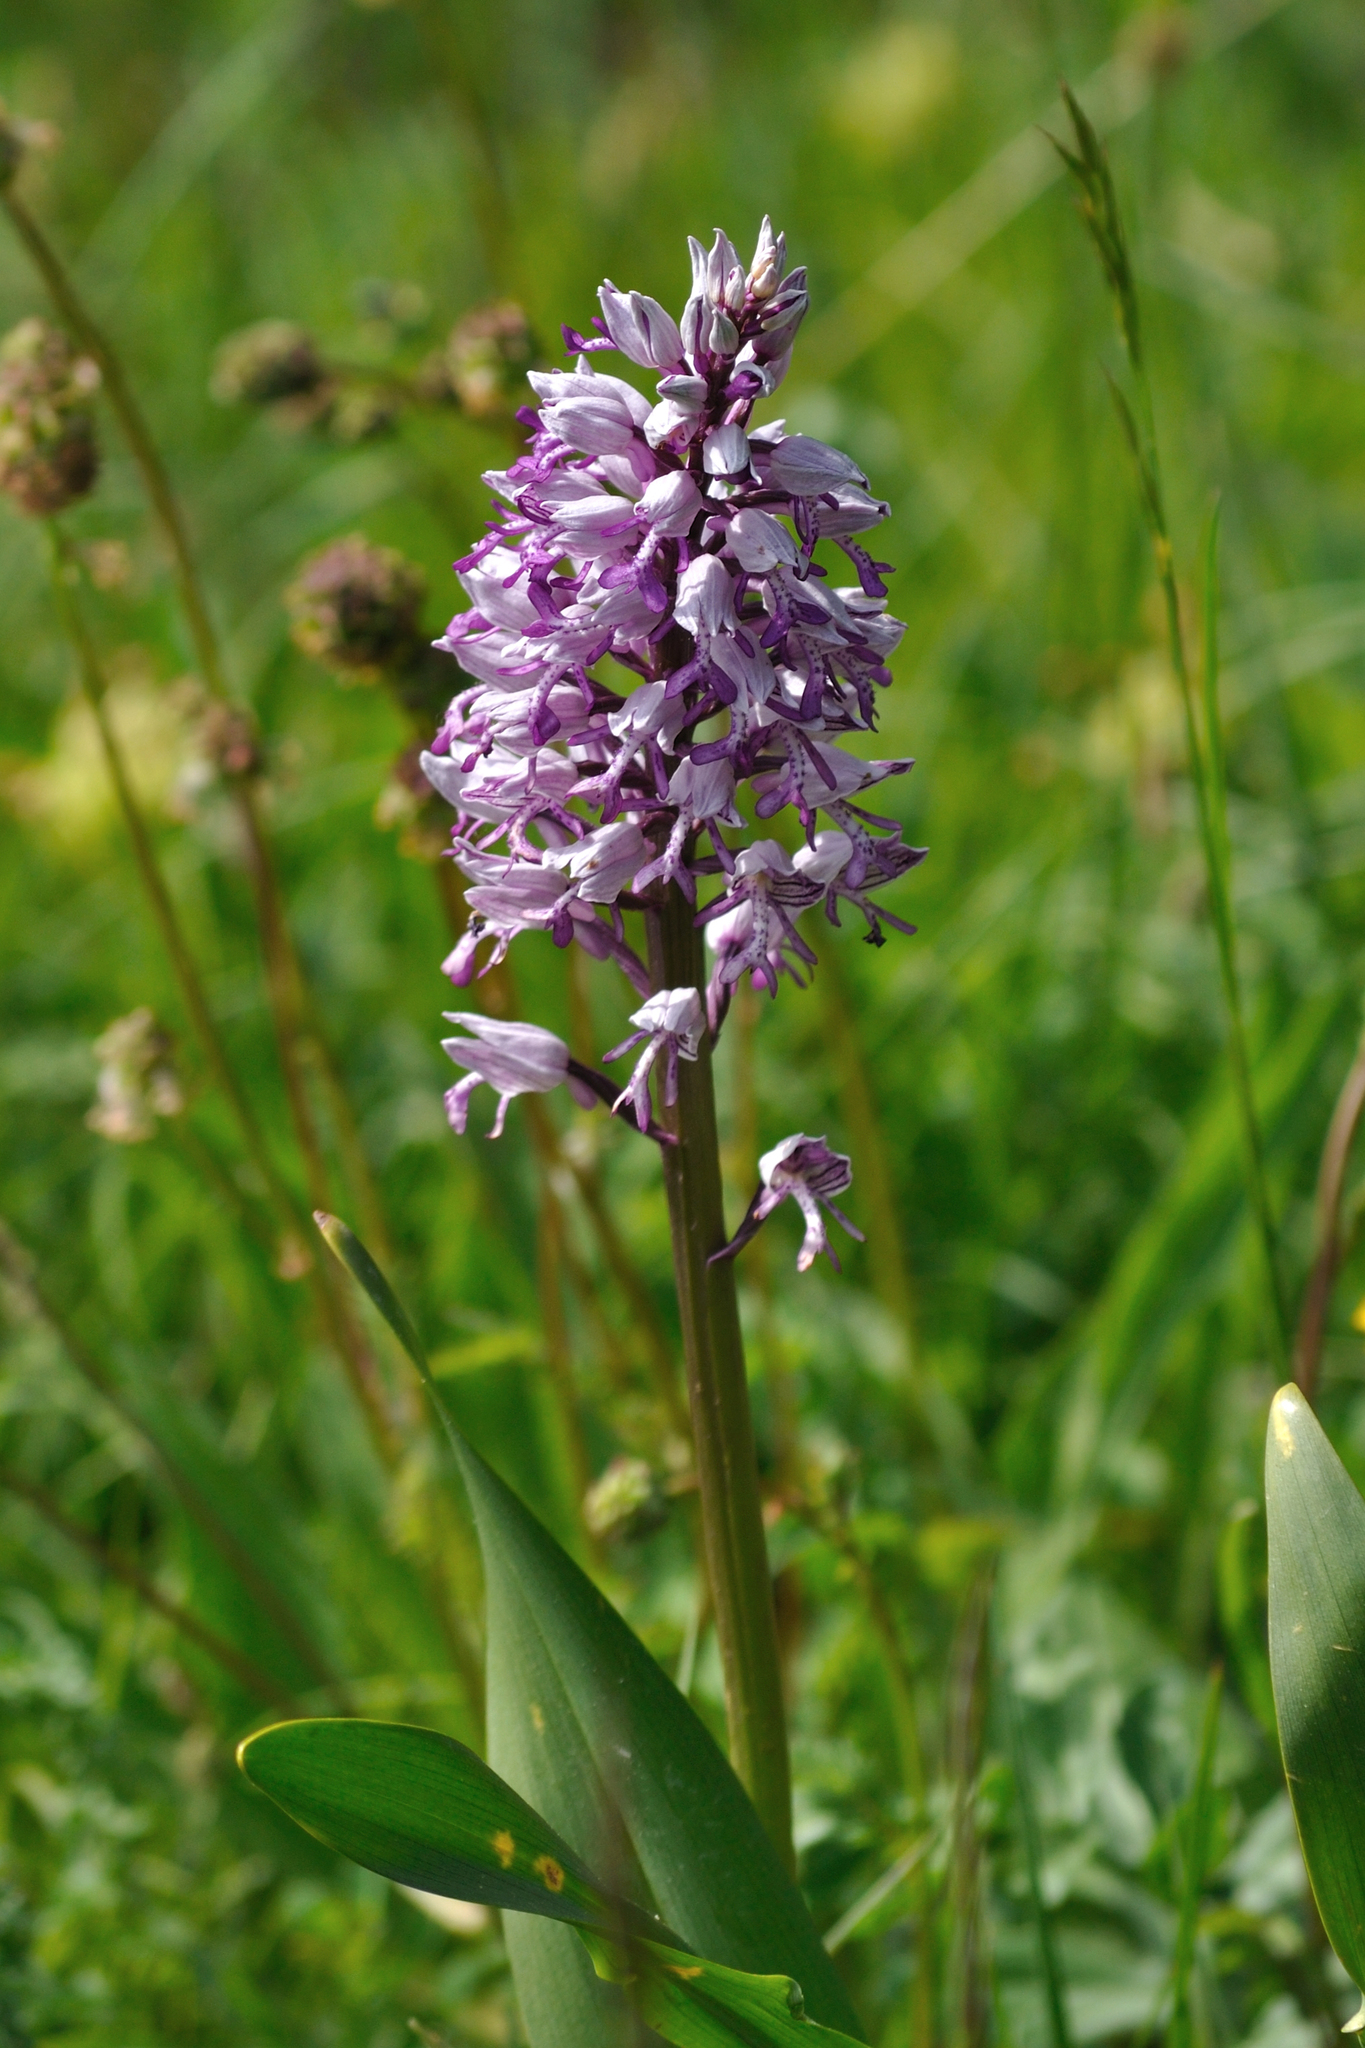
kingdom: Plantae
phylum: Tracheophyta
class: Liliopsida
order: Asparagales
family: Orchidaceae
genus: Orchis
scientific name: Orchis militaris
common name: Military orchid
